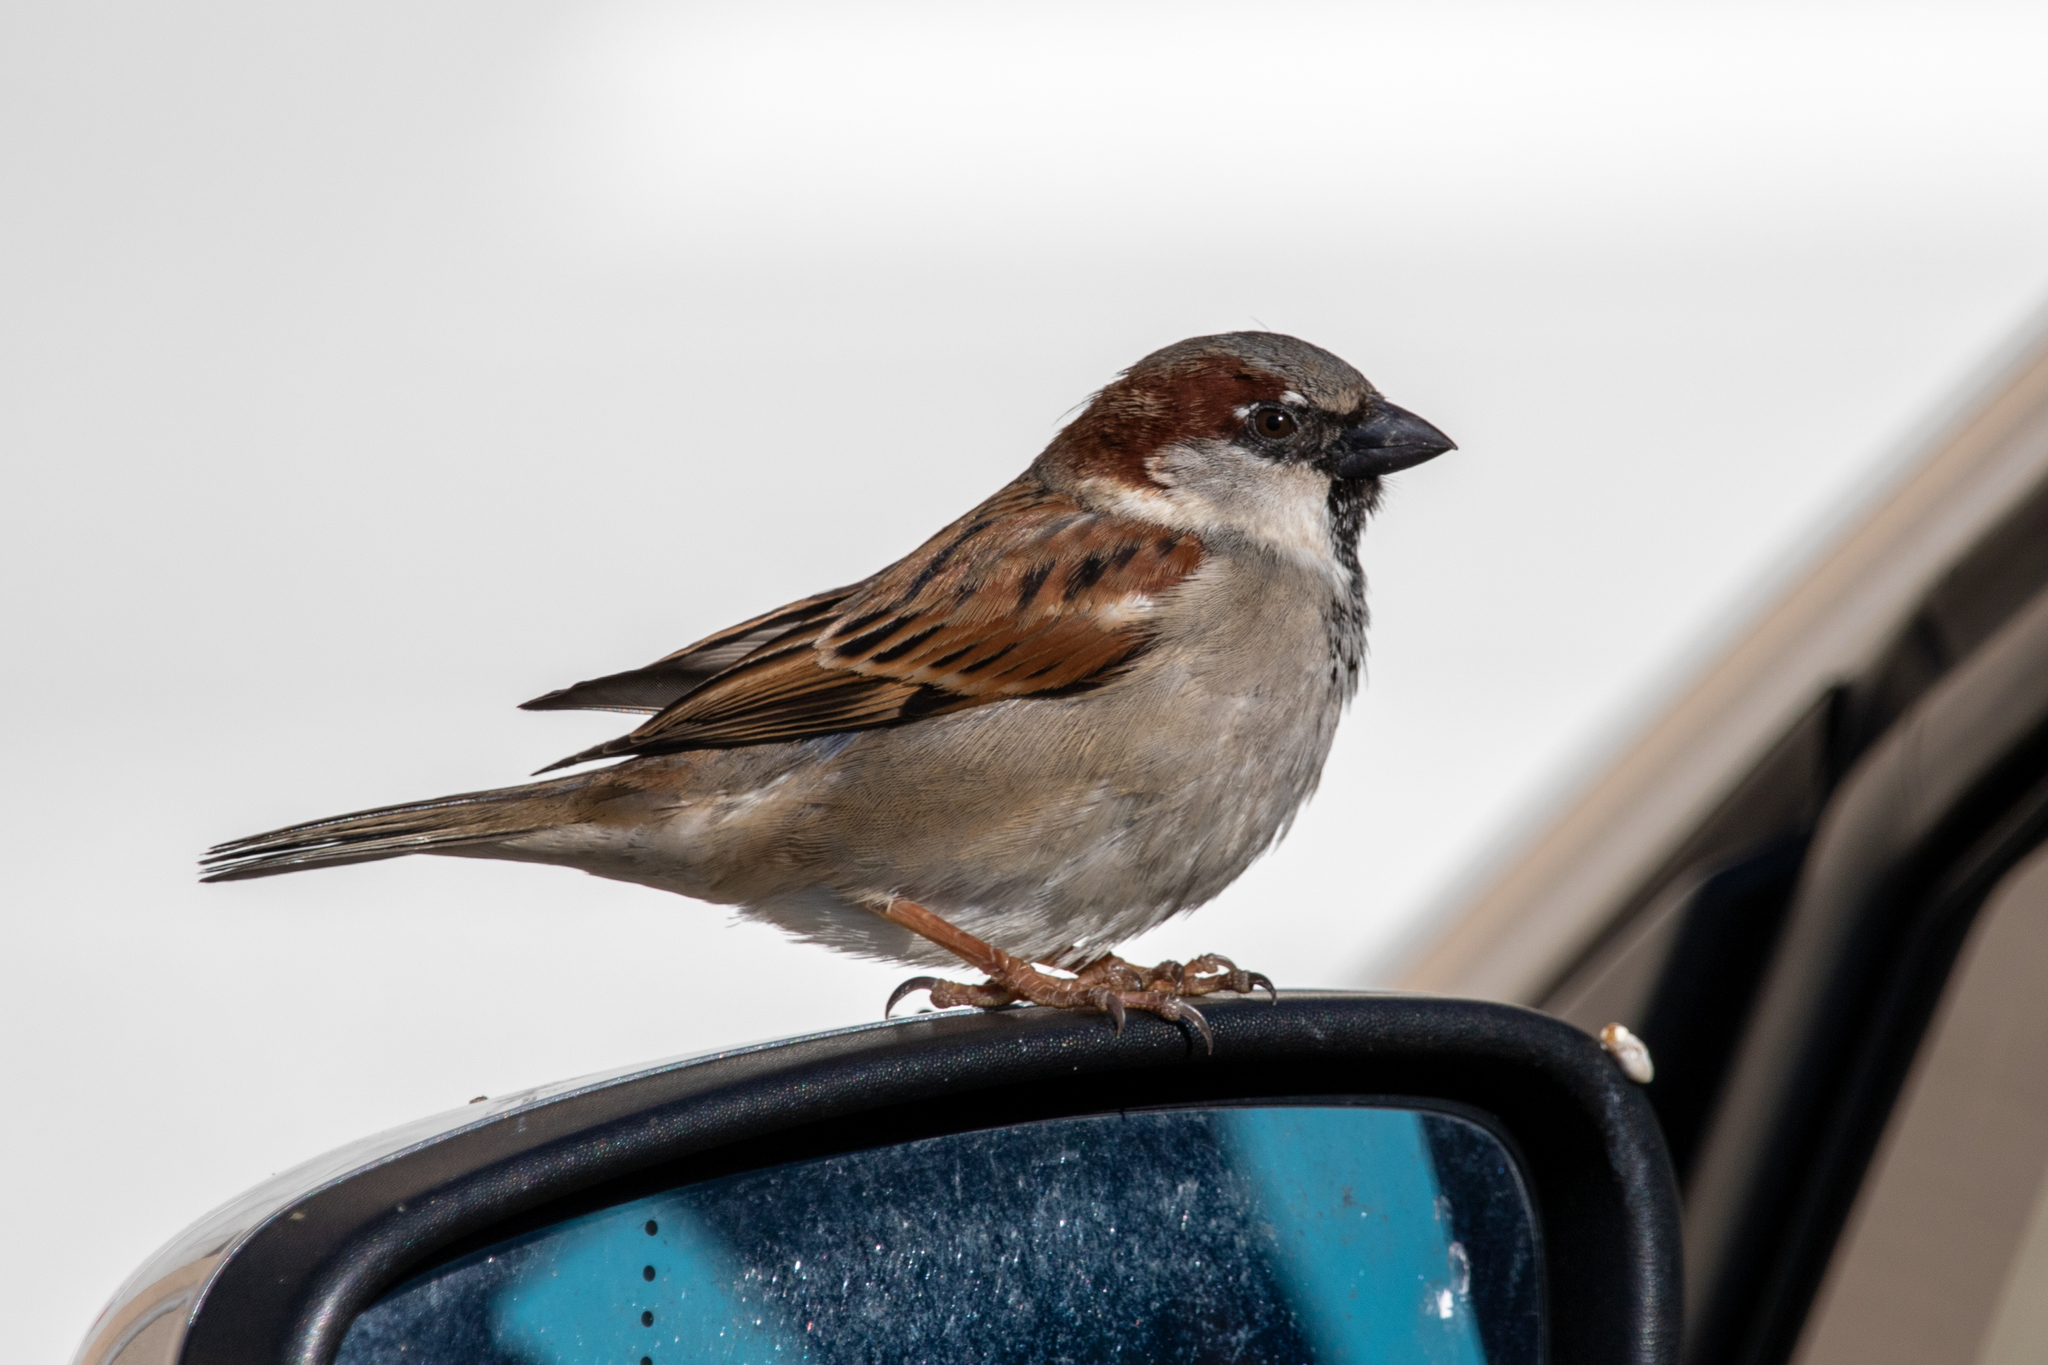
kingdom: Animalia
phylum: Chordata
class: Aves
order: Passeriformes
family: Passeridae
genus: Passer
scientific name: Passer domesticus
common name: House sparrow
